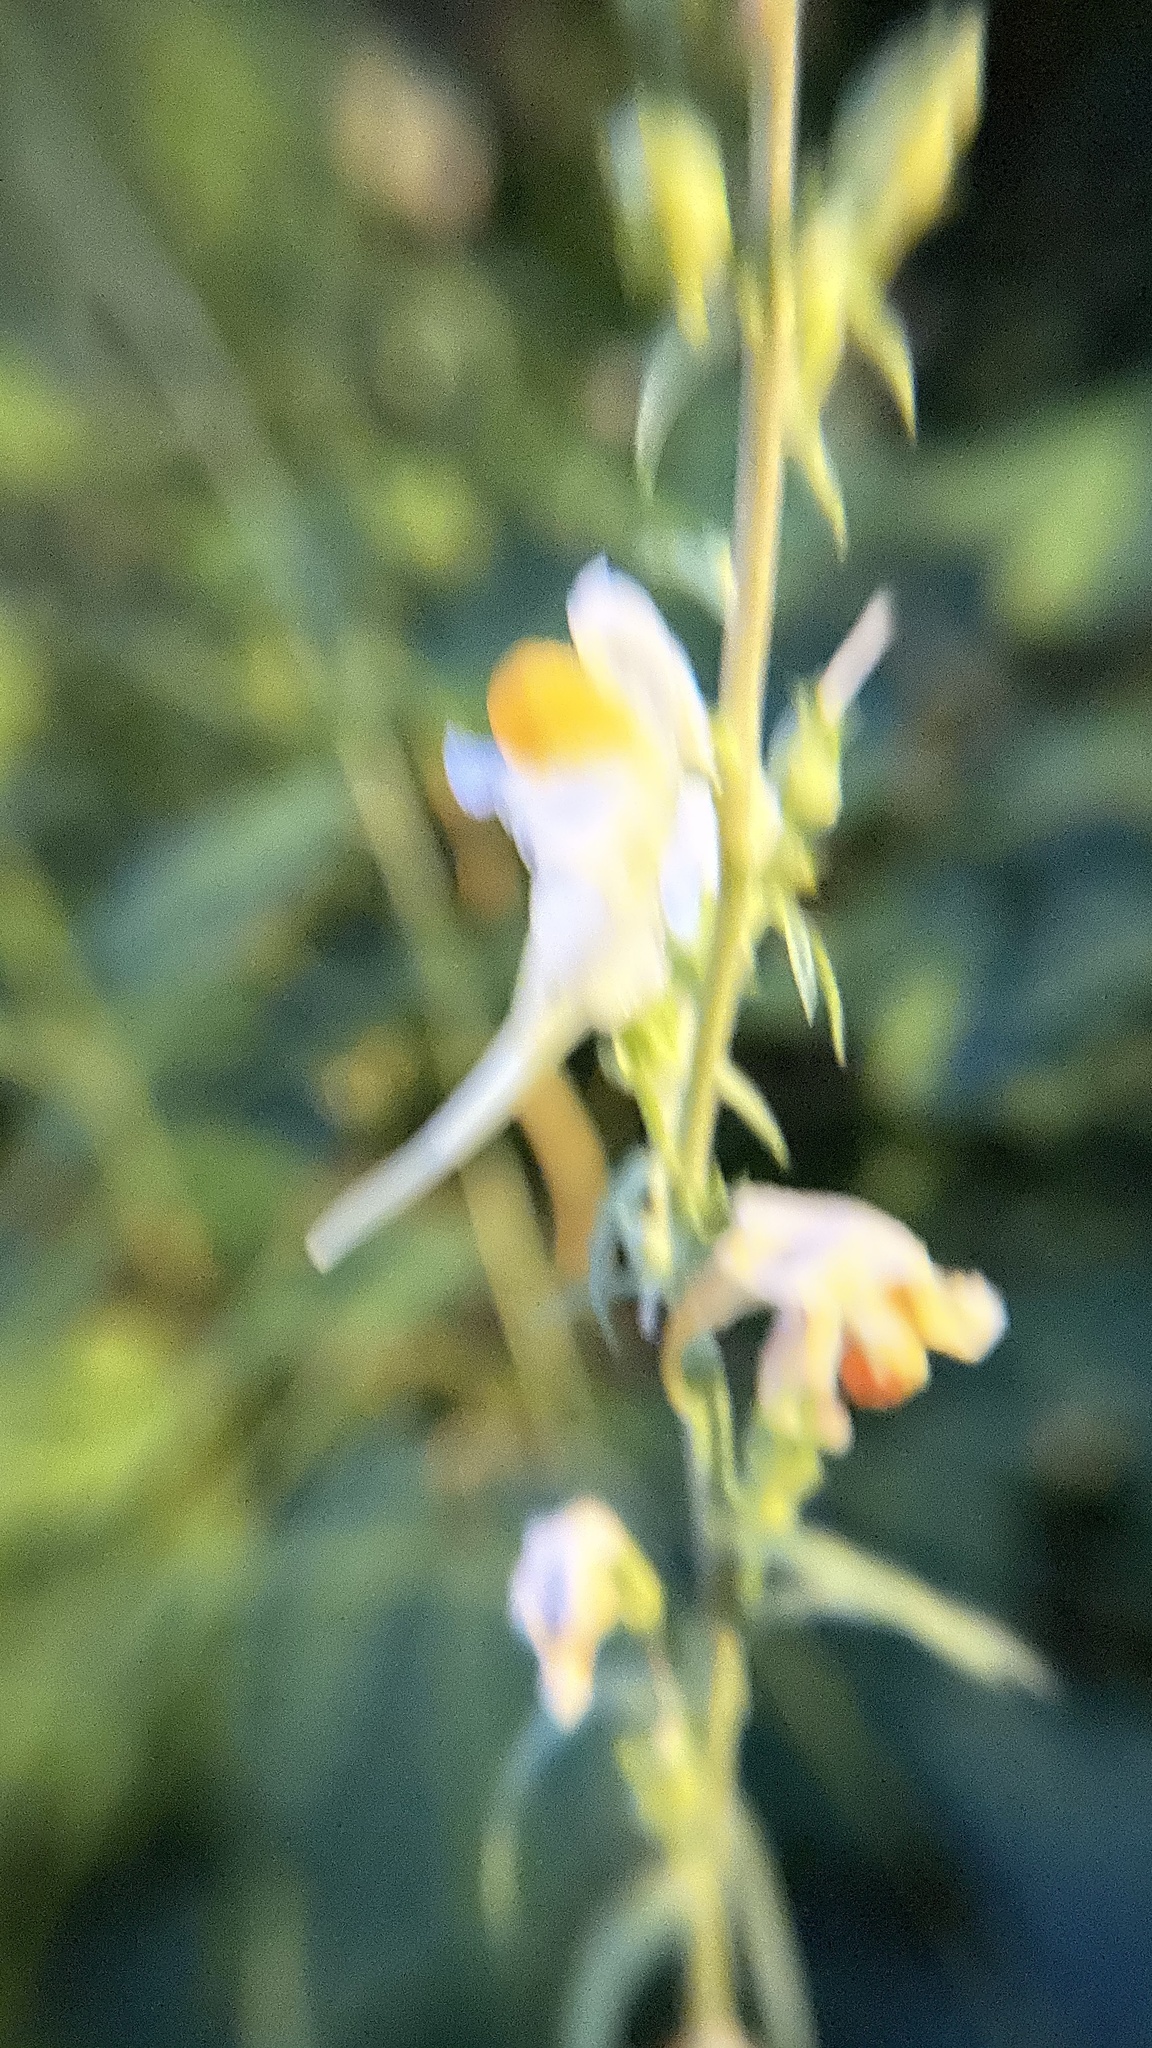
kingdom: Plantae
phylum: Tracheophyta
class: Magnoliopsida
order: Lamiales
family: Plantaginaceae
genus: Linaria
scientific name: Linaria vulgaris
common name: Butter and eggs
